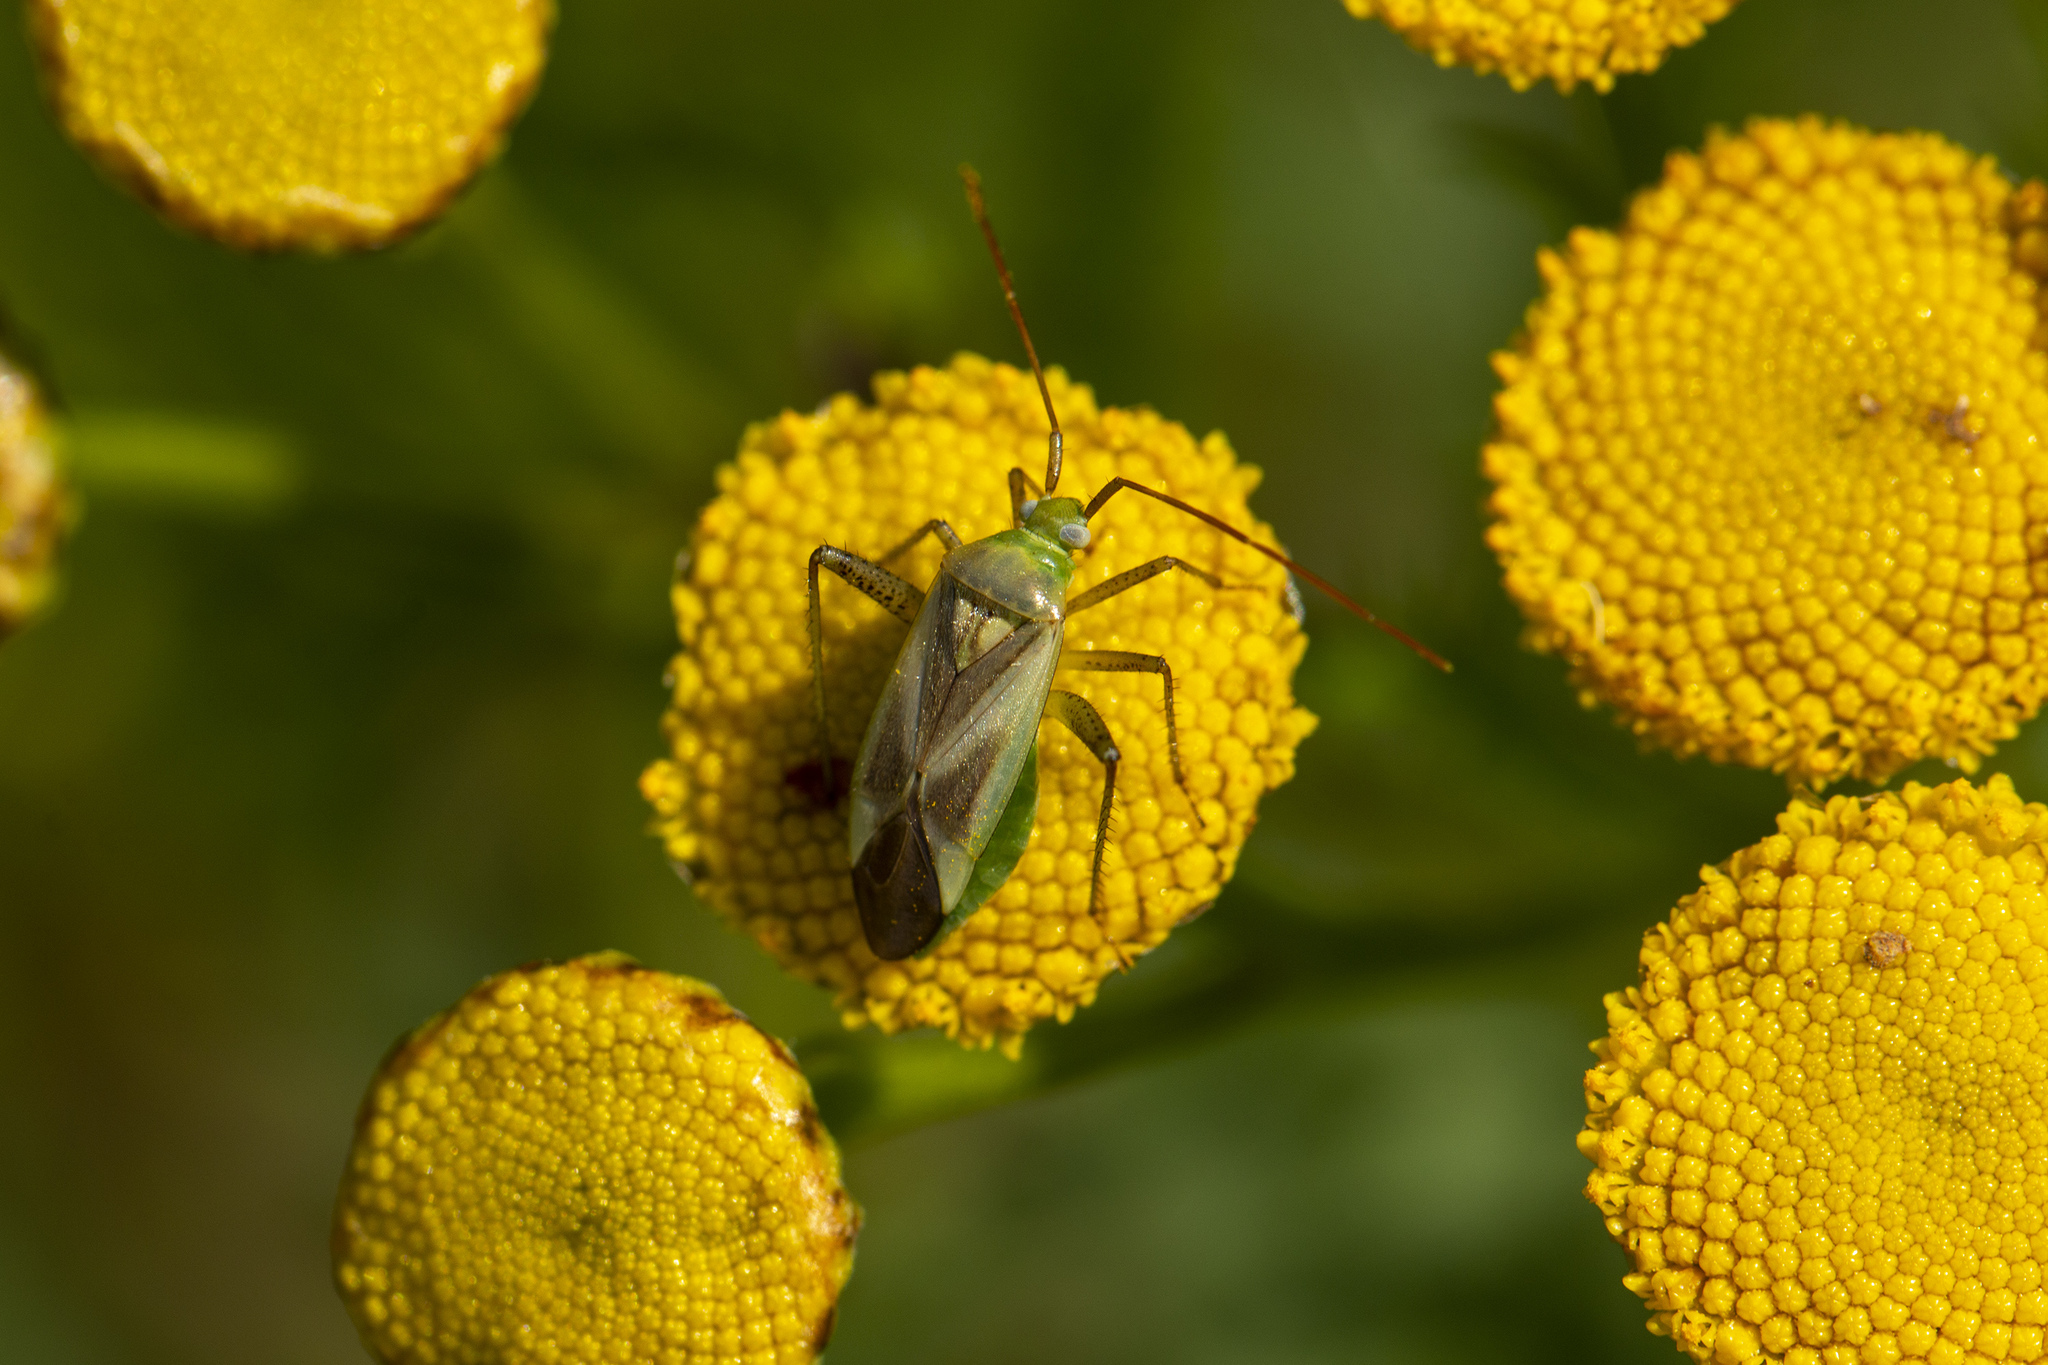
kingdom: Animalia
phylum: Arthropoda
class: Insecta
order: Hemiptera
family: Miridae
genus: Adelphocoris
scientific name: Adelphocoris lineolatus
